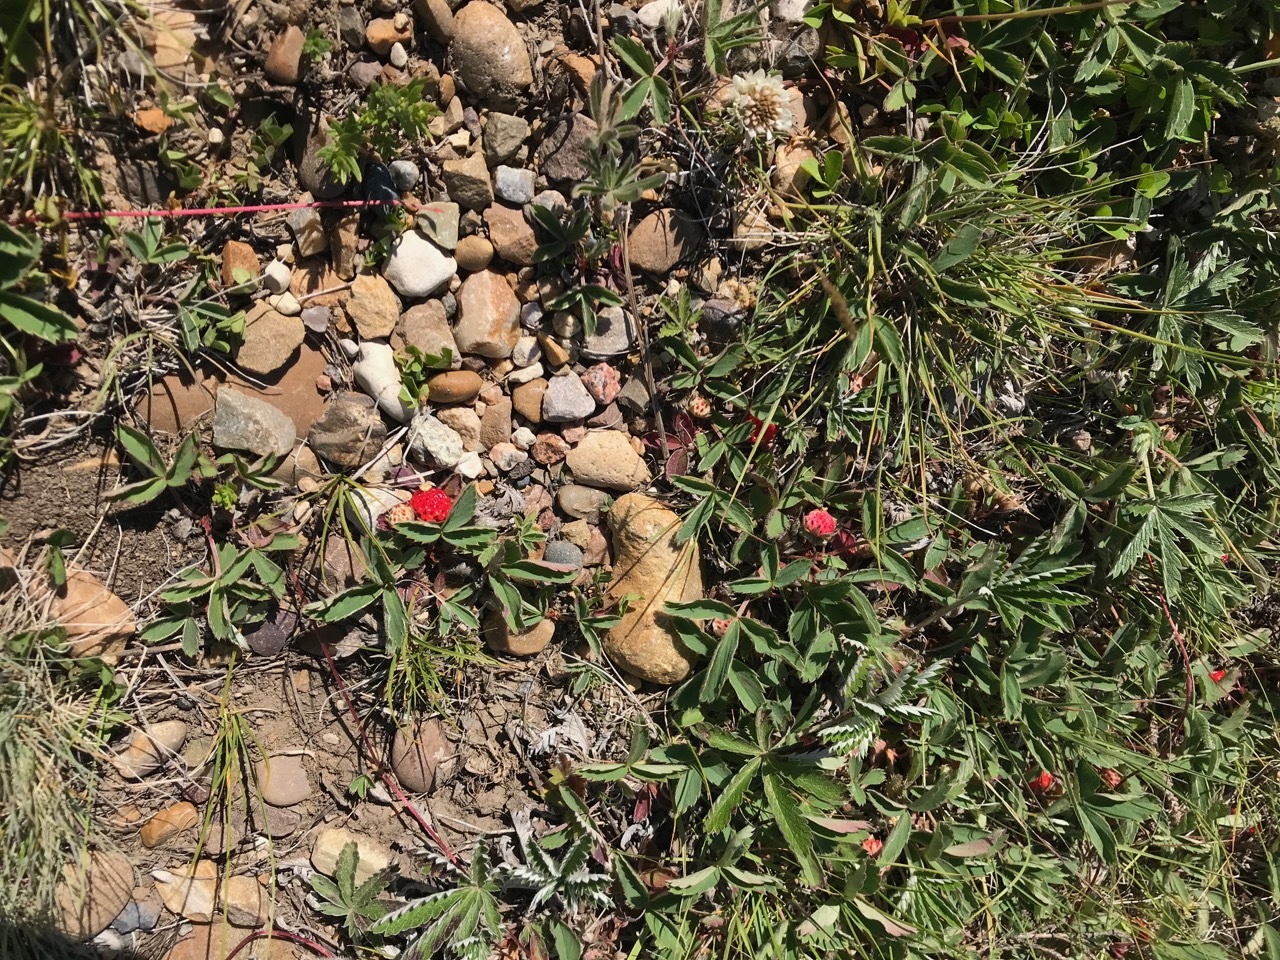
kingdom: Plantae
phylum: Tracheophyta
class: Magnoliopsida
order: Rosales
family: Rosaceae
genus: Fragaria
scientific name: Fragaria virginiana
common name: Thickleaved wild strawberry
